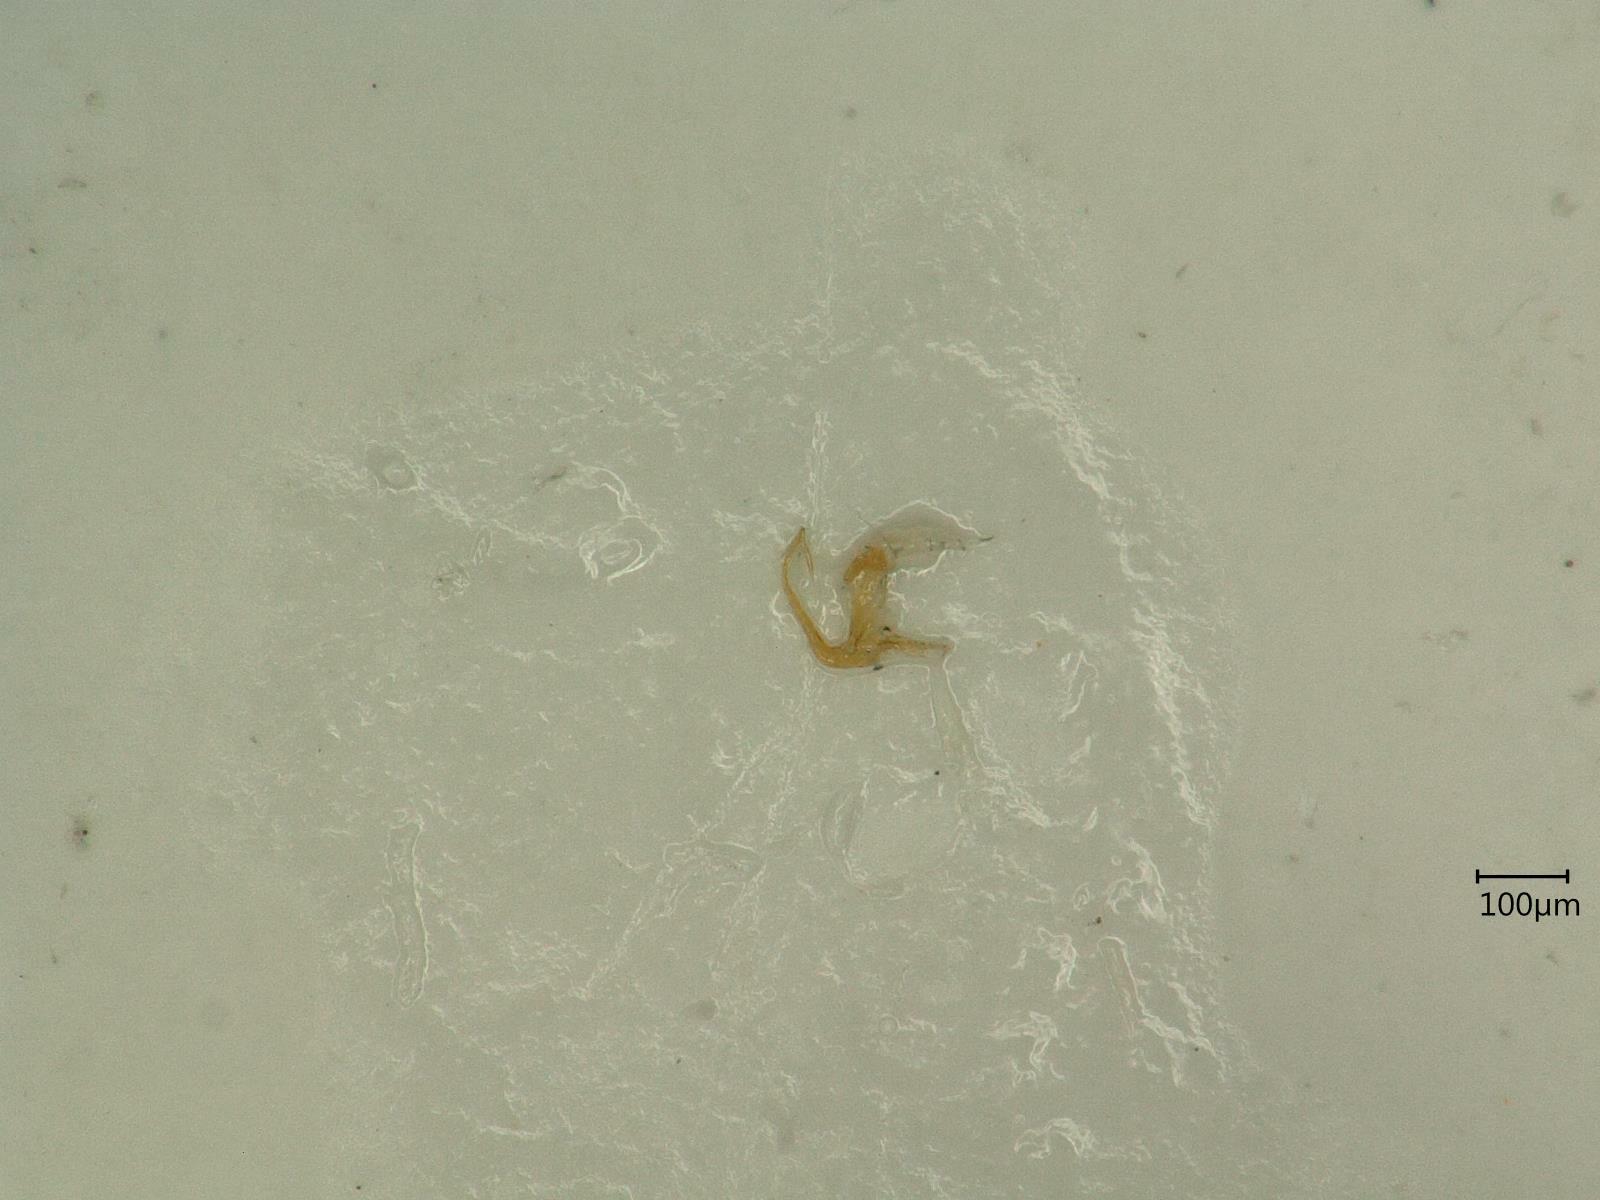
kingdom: Animalia
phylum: Arthropoda
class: Insecta
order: Hemiptera
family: Cicadellidae
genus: Eupteryx
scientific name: Eupteryx urticae
